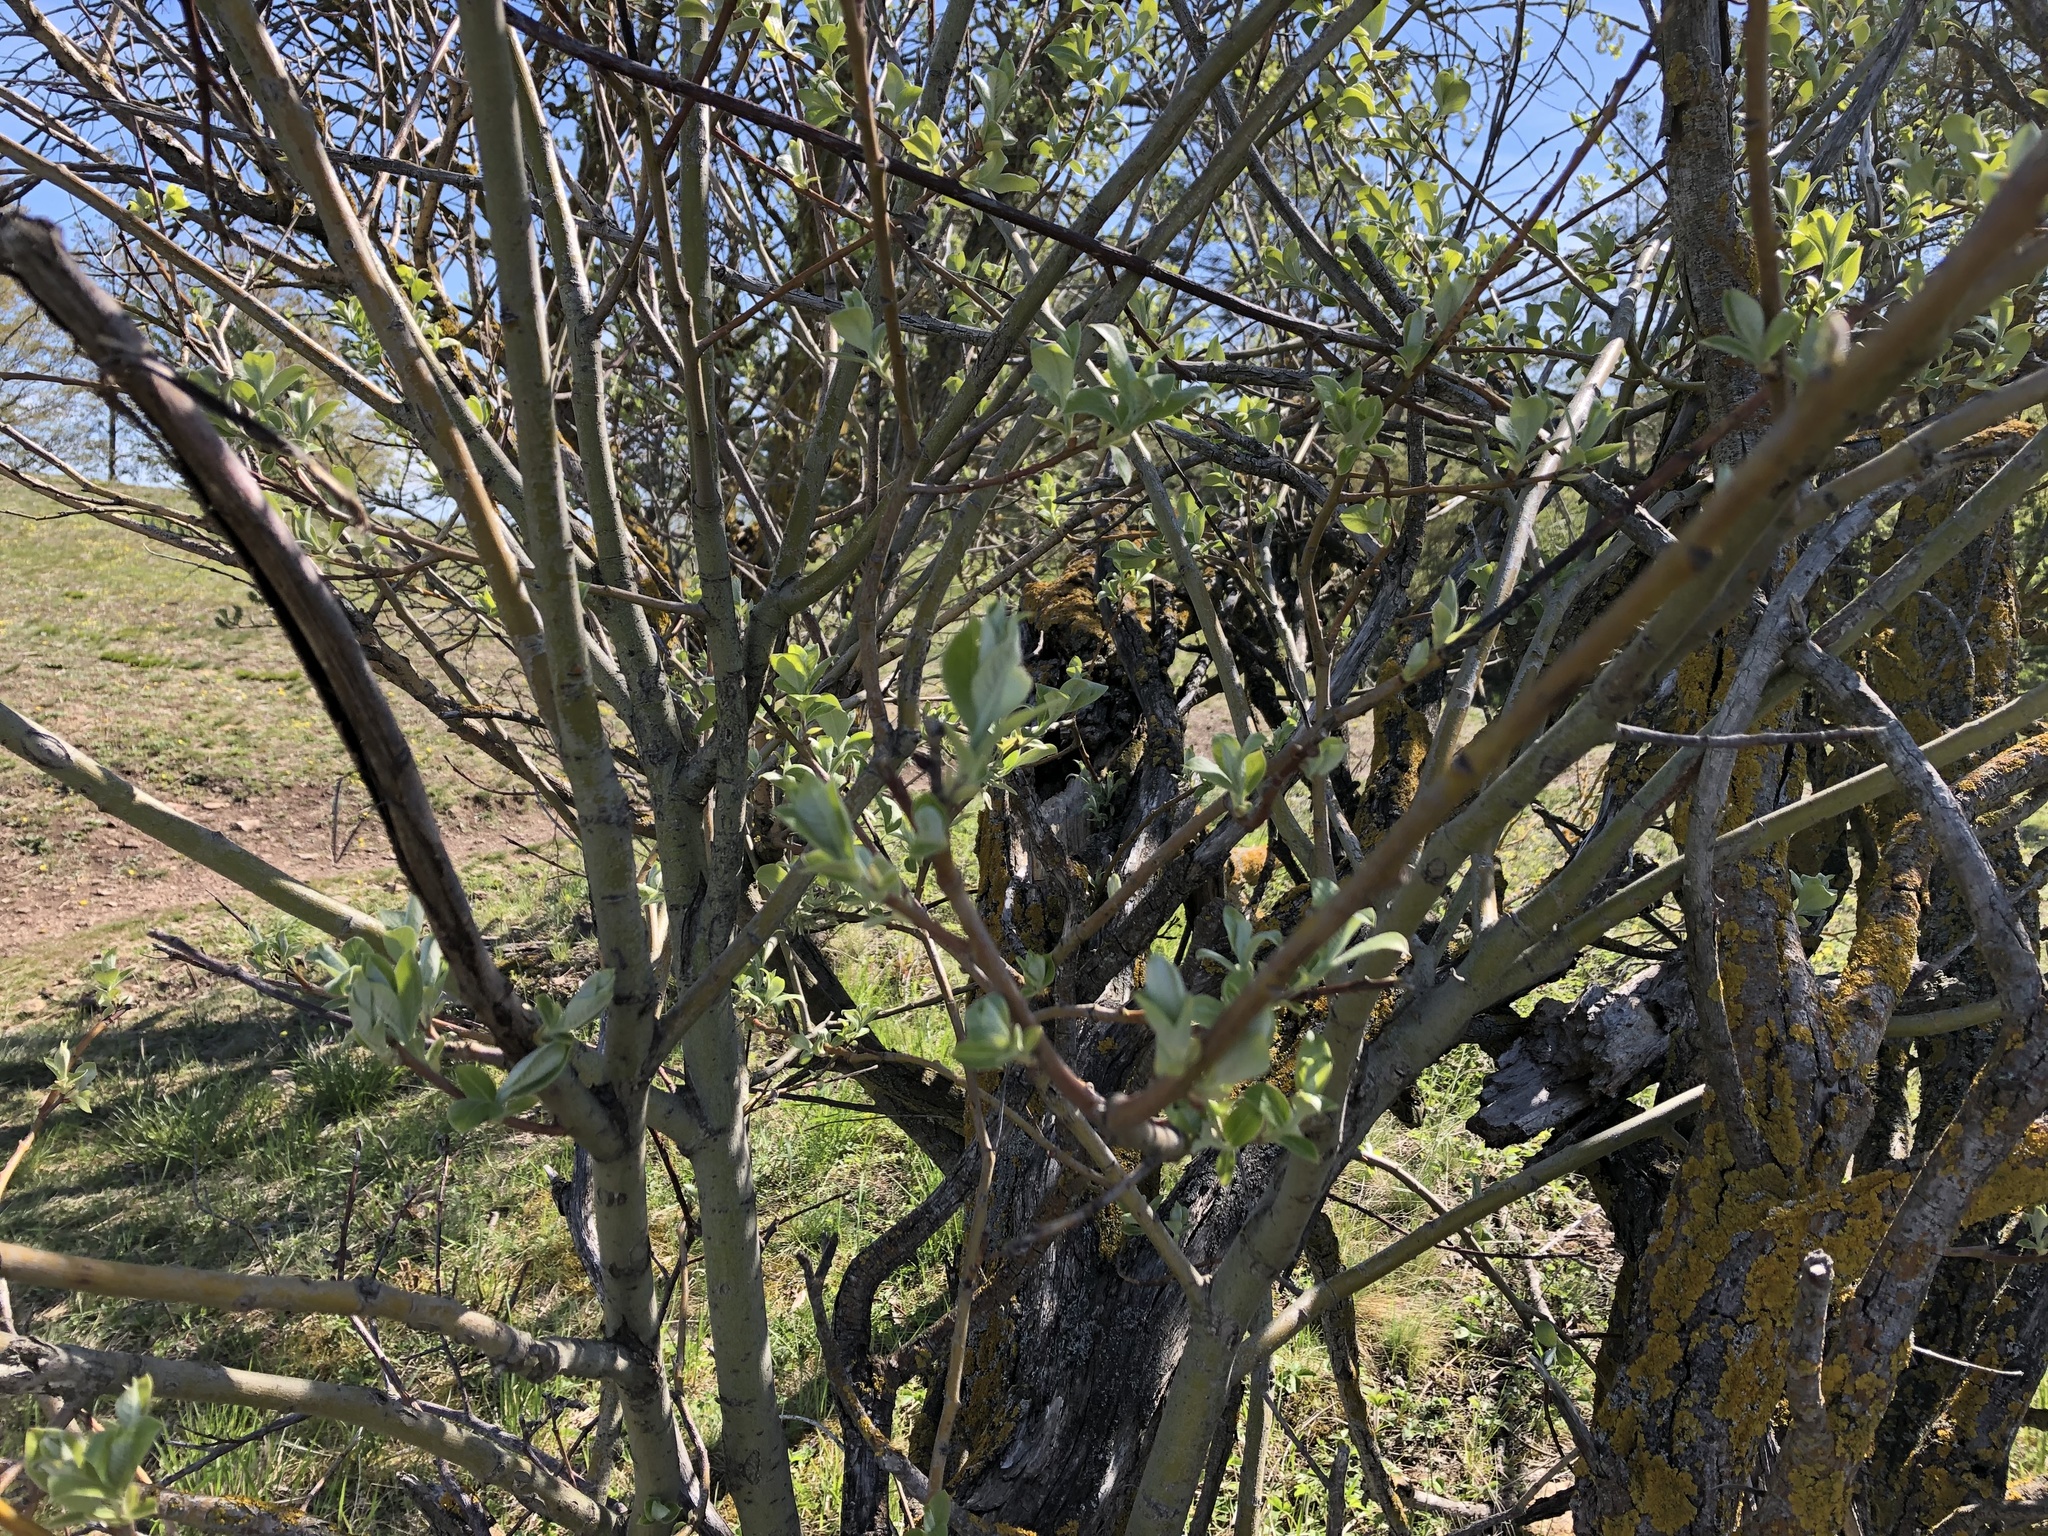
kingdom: Plantae
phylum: Tracheophyta
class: Magnoliopsida
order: Malpighiales
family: Salicaceae
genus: Salix
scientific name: Salix caprea
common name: Goat willow
